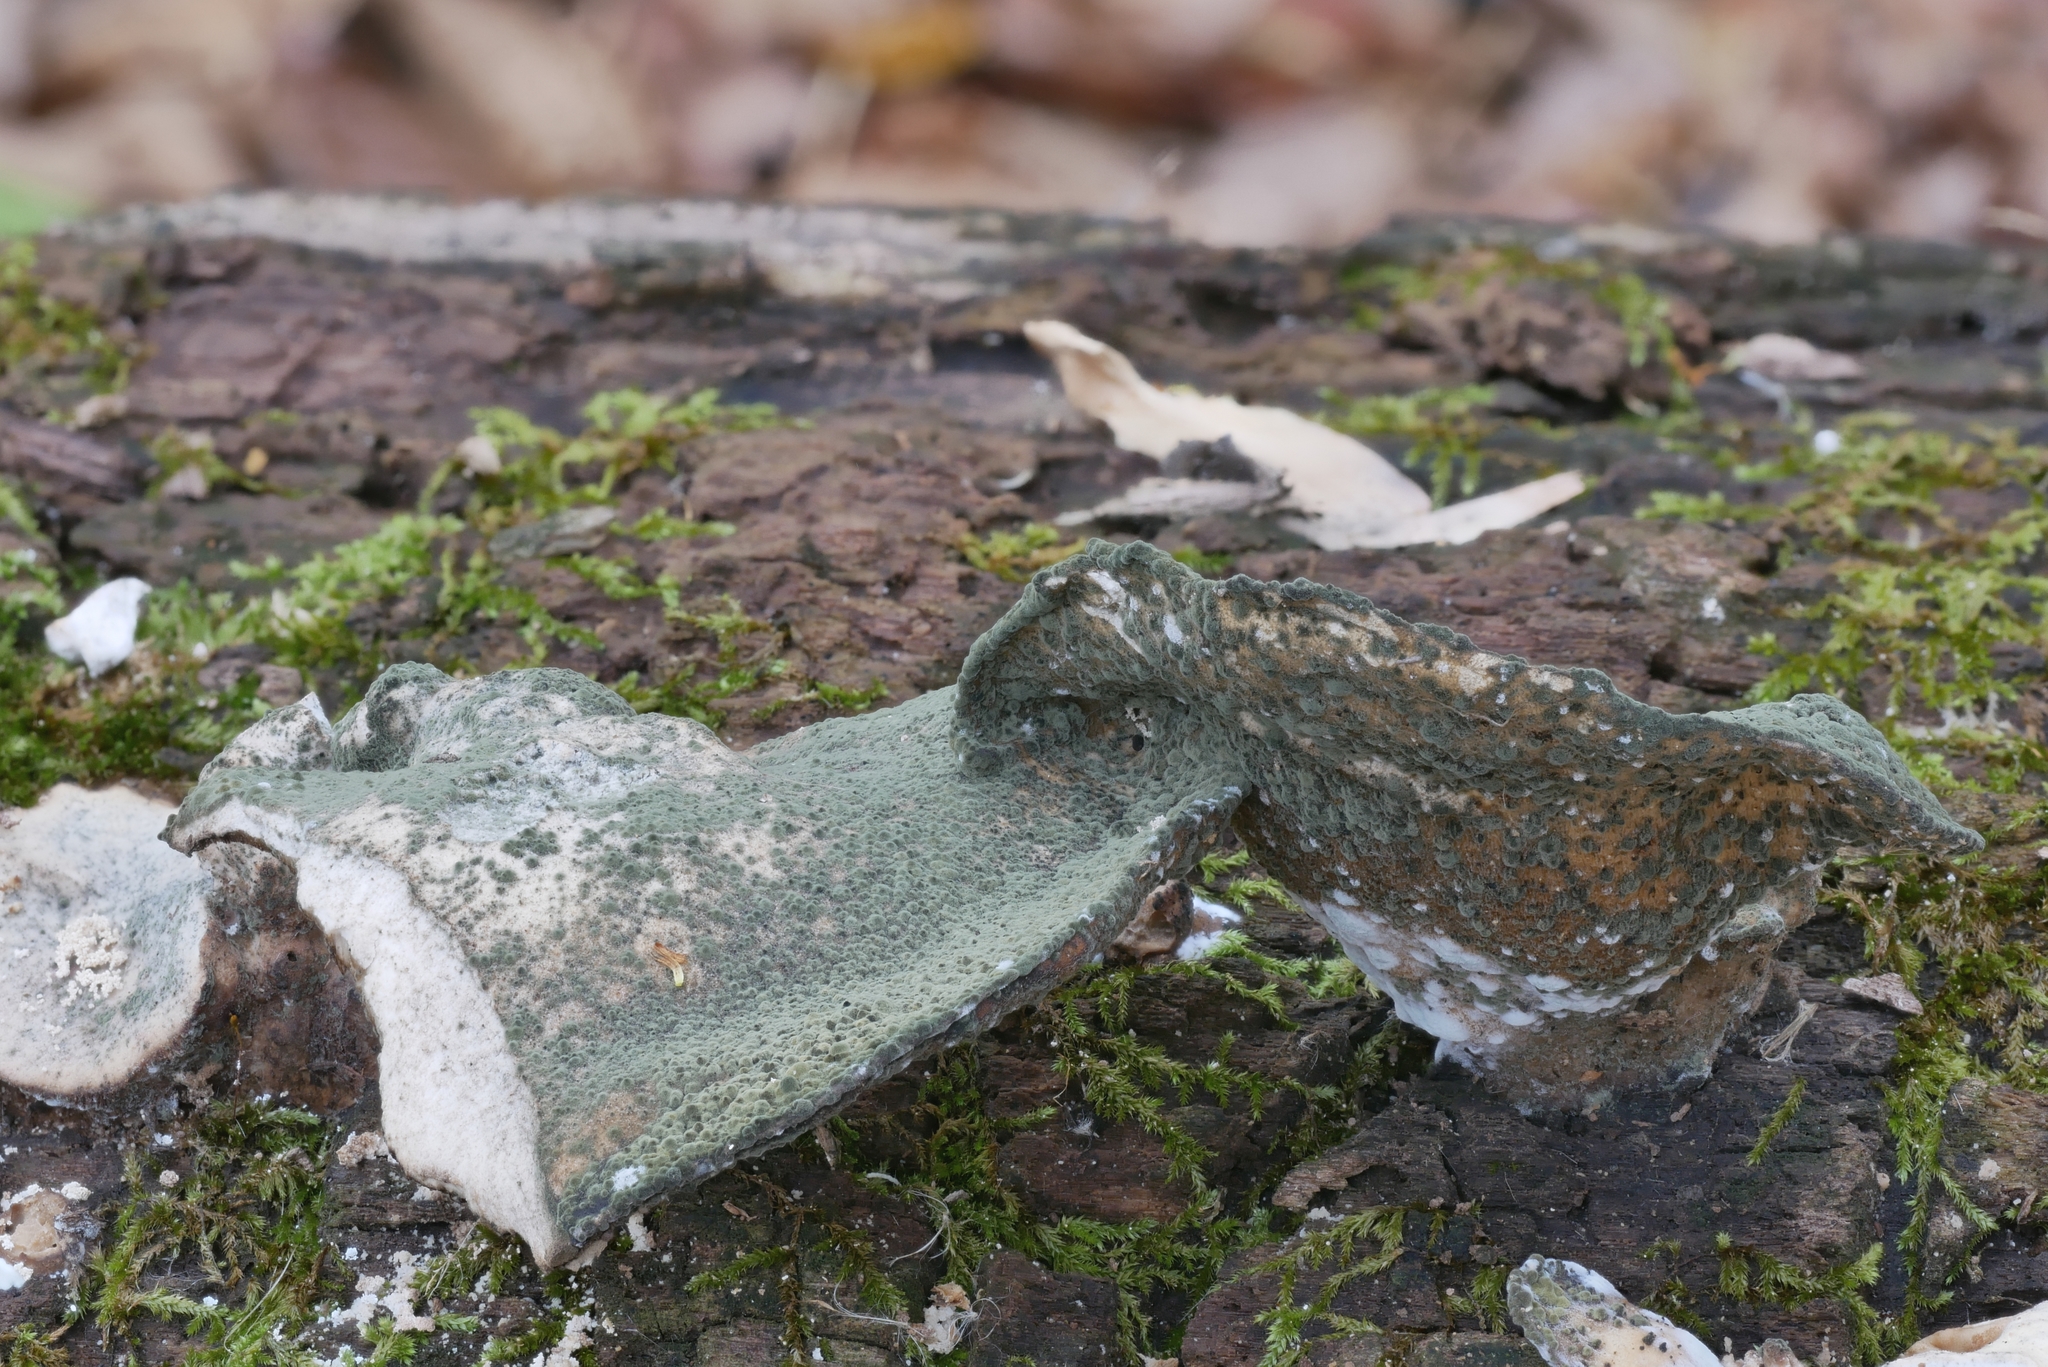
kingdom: Fungi
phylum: Ascomycota
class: Eurotiomycetes
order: Eurotiales
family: Aspergillaceae
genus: Penicillium
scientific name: Penicillium brevicompactum
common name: Rollrim mould
